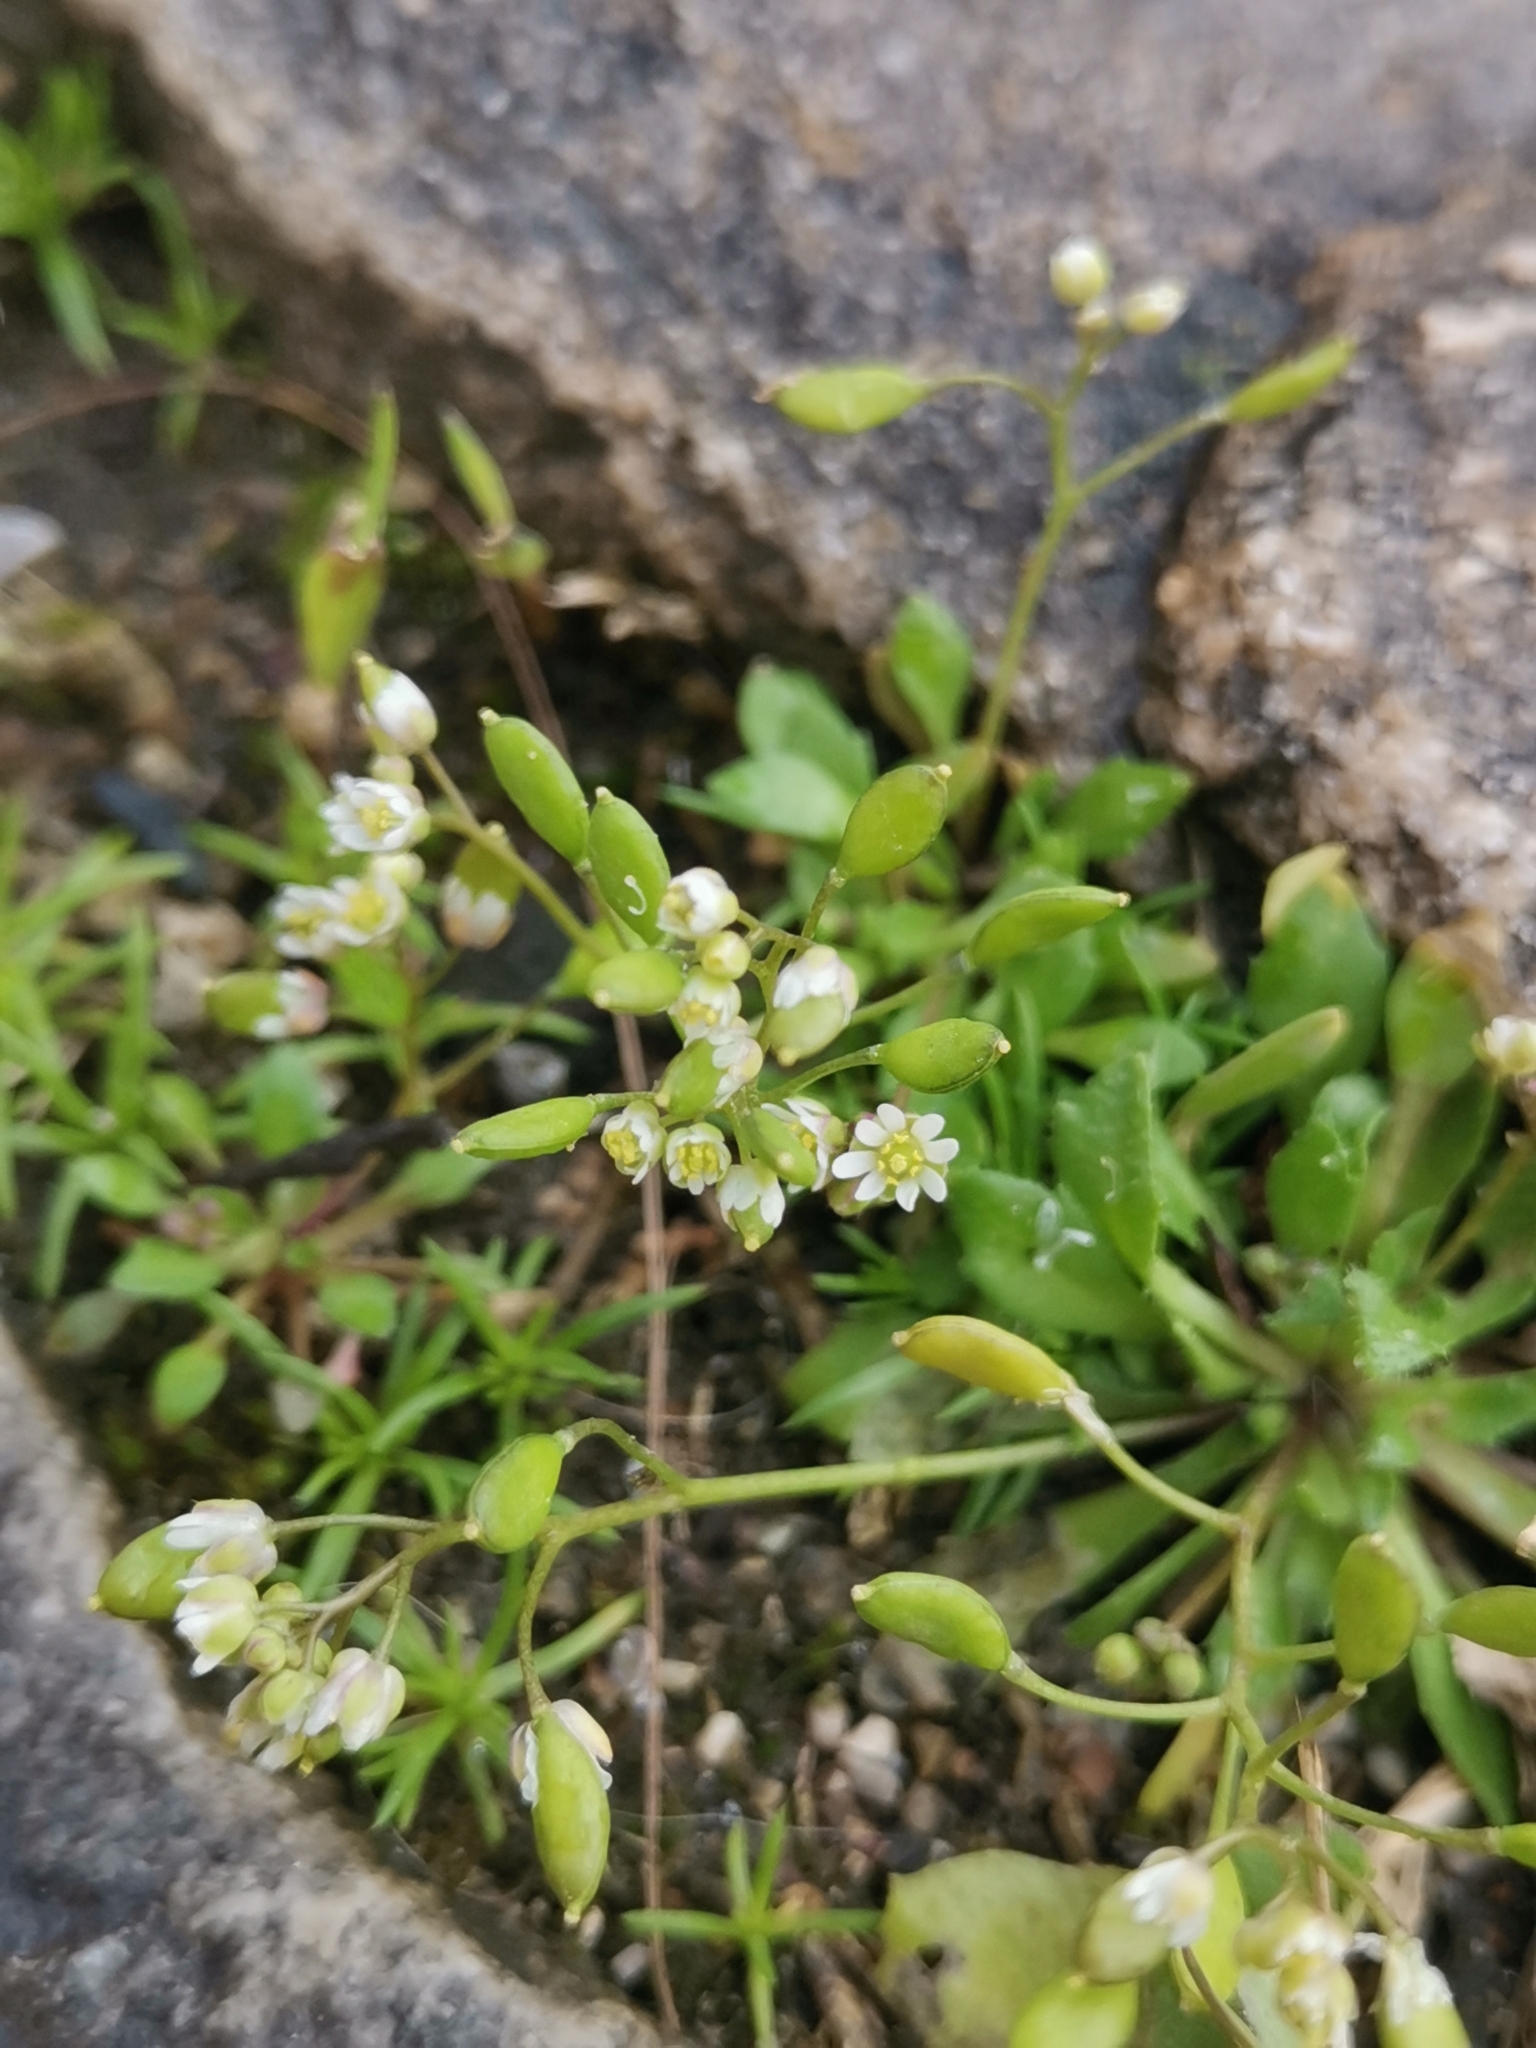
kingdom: Plantae
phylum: Tracheophyta
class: Magnoliopsida
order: Brassicales
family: Brassicaceae
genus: Draba
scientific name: Draba verna
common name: Spring draba
